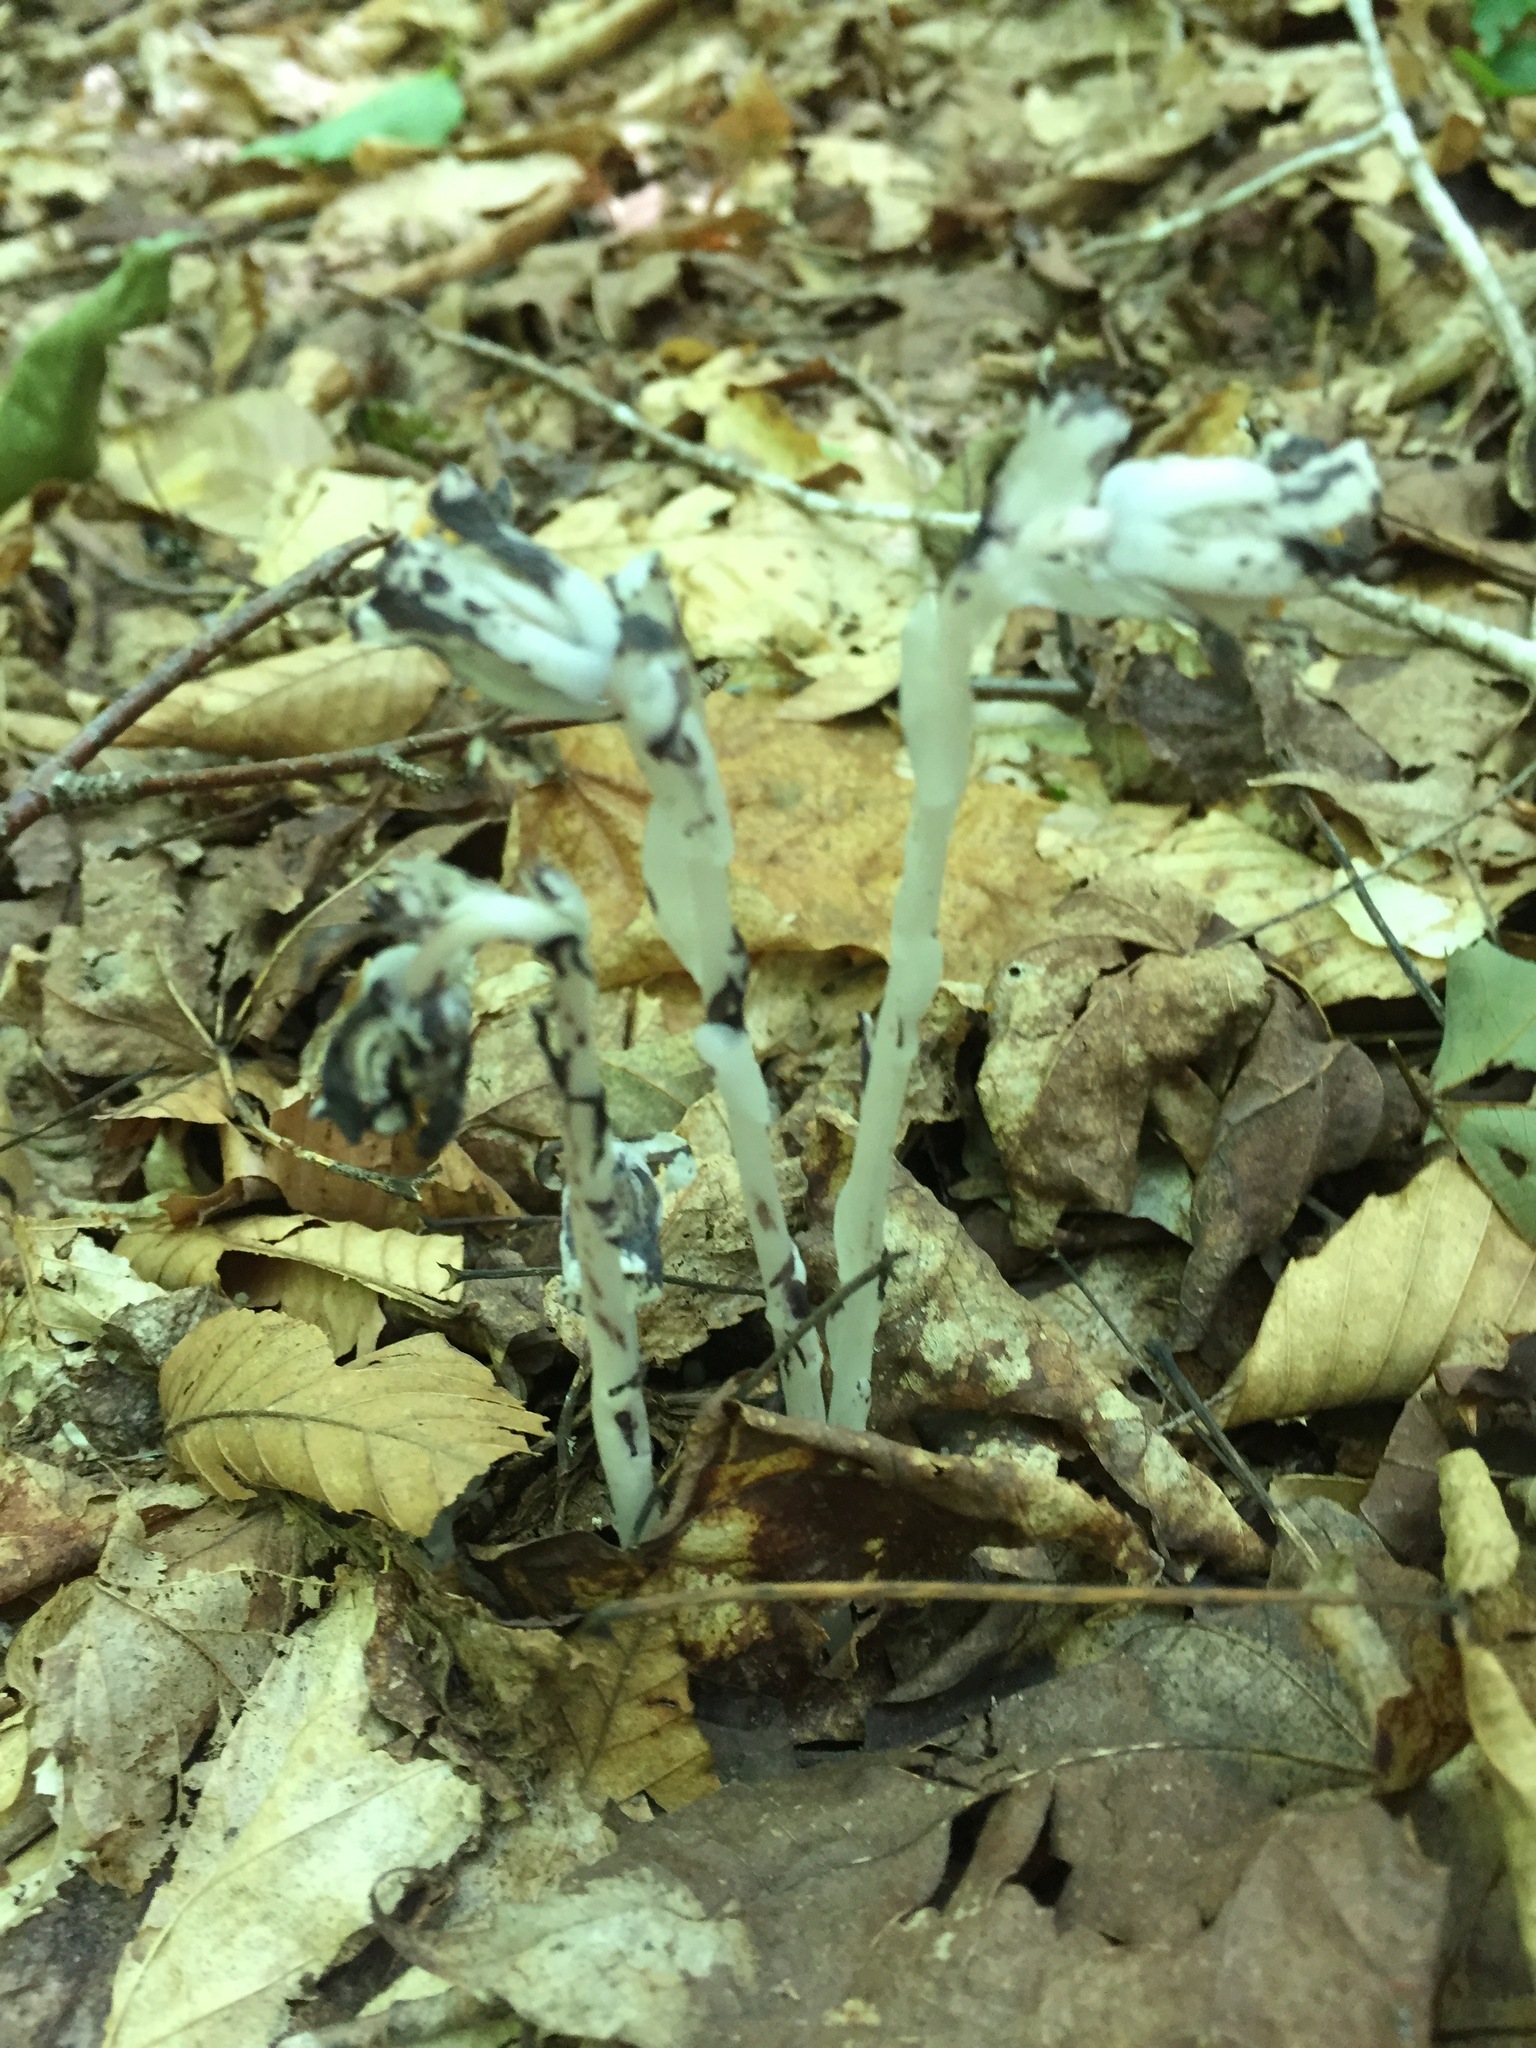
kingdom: Plantae
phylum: Tracheophyta
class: Magnoliopsida
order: Ericales
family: Ericaceae
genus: Monotropa
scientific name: Monotropa uniflora
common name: Convulsion root
